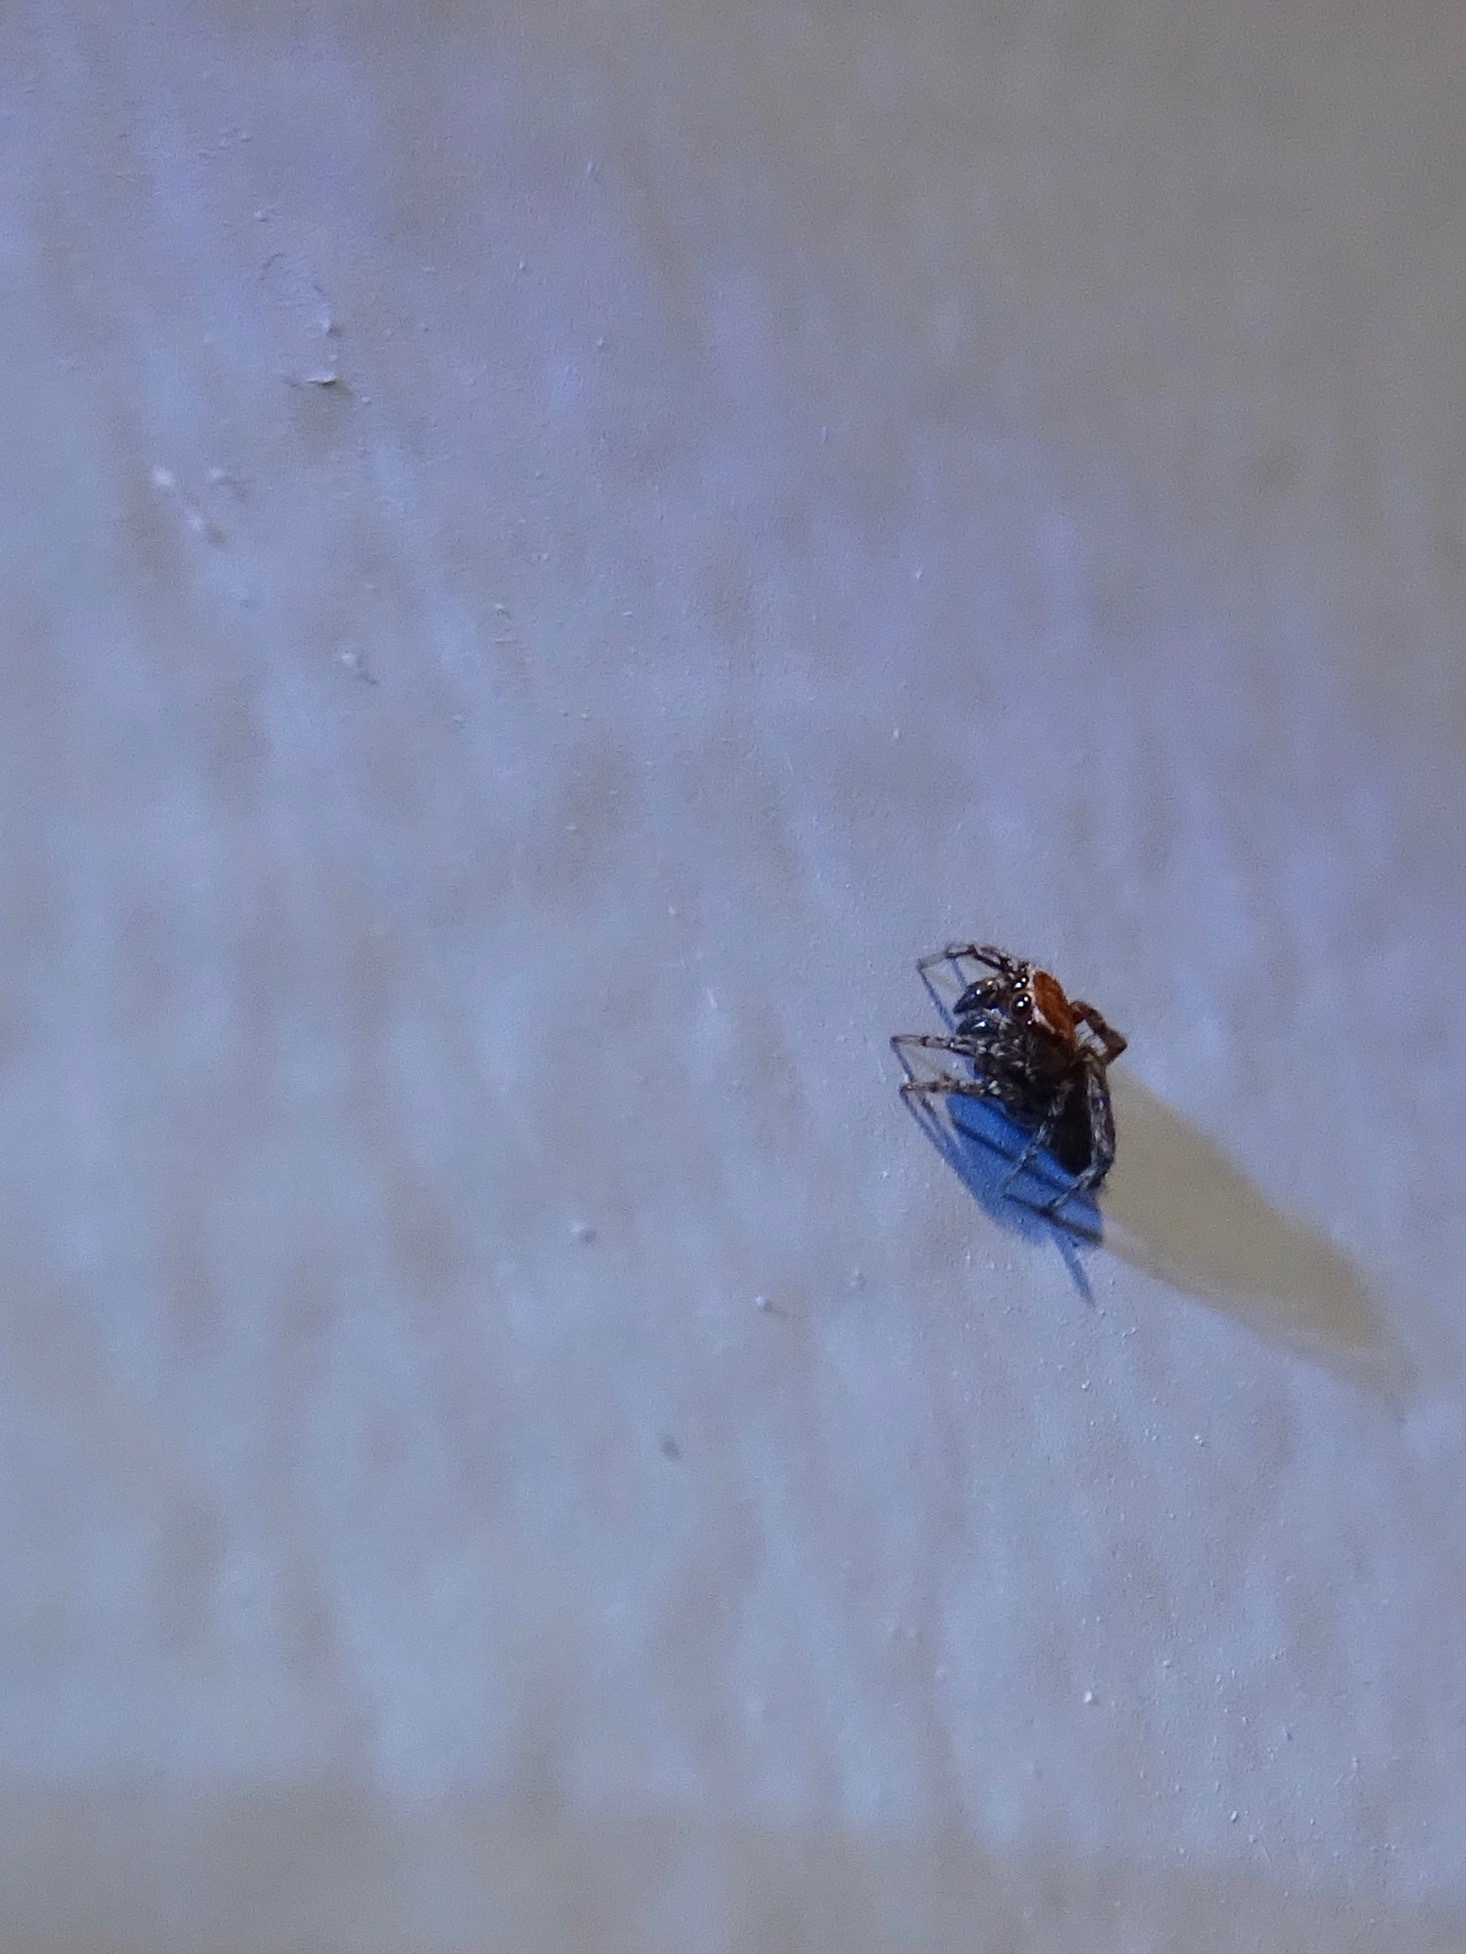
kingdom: Animalia
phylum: Arthropoda
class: Arachnida
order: Araneae
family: Salticidae
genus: Attinella
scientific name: Attinella dorsata
